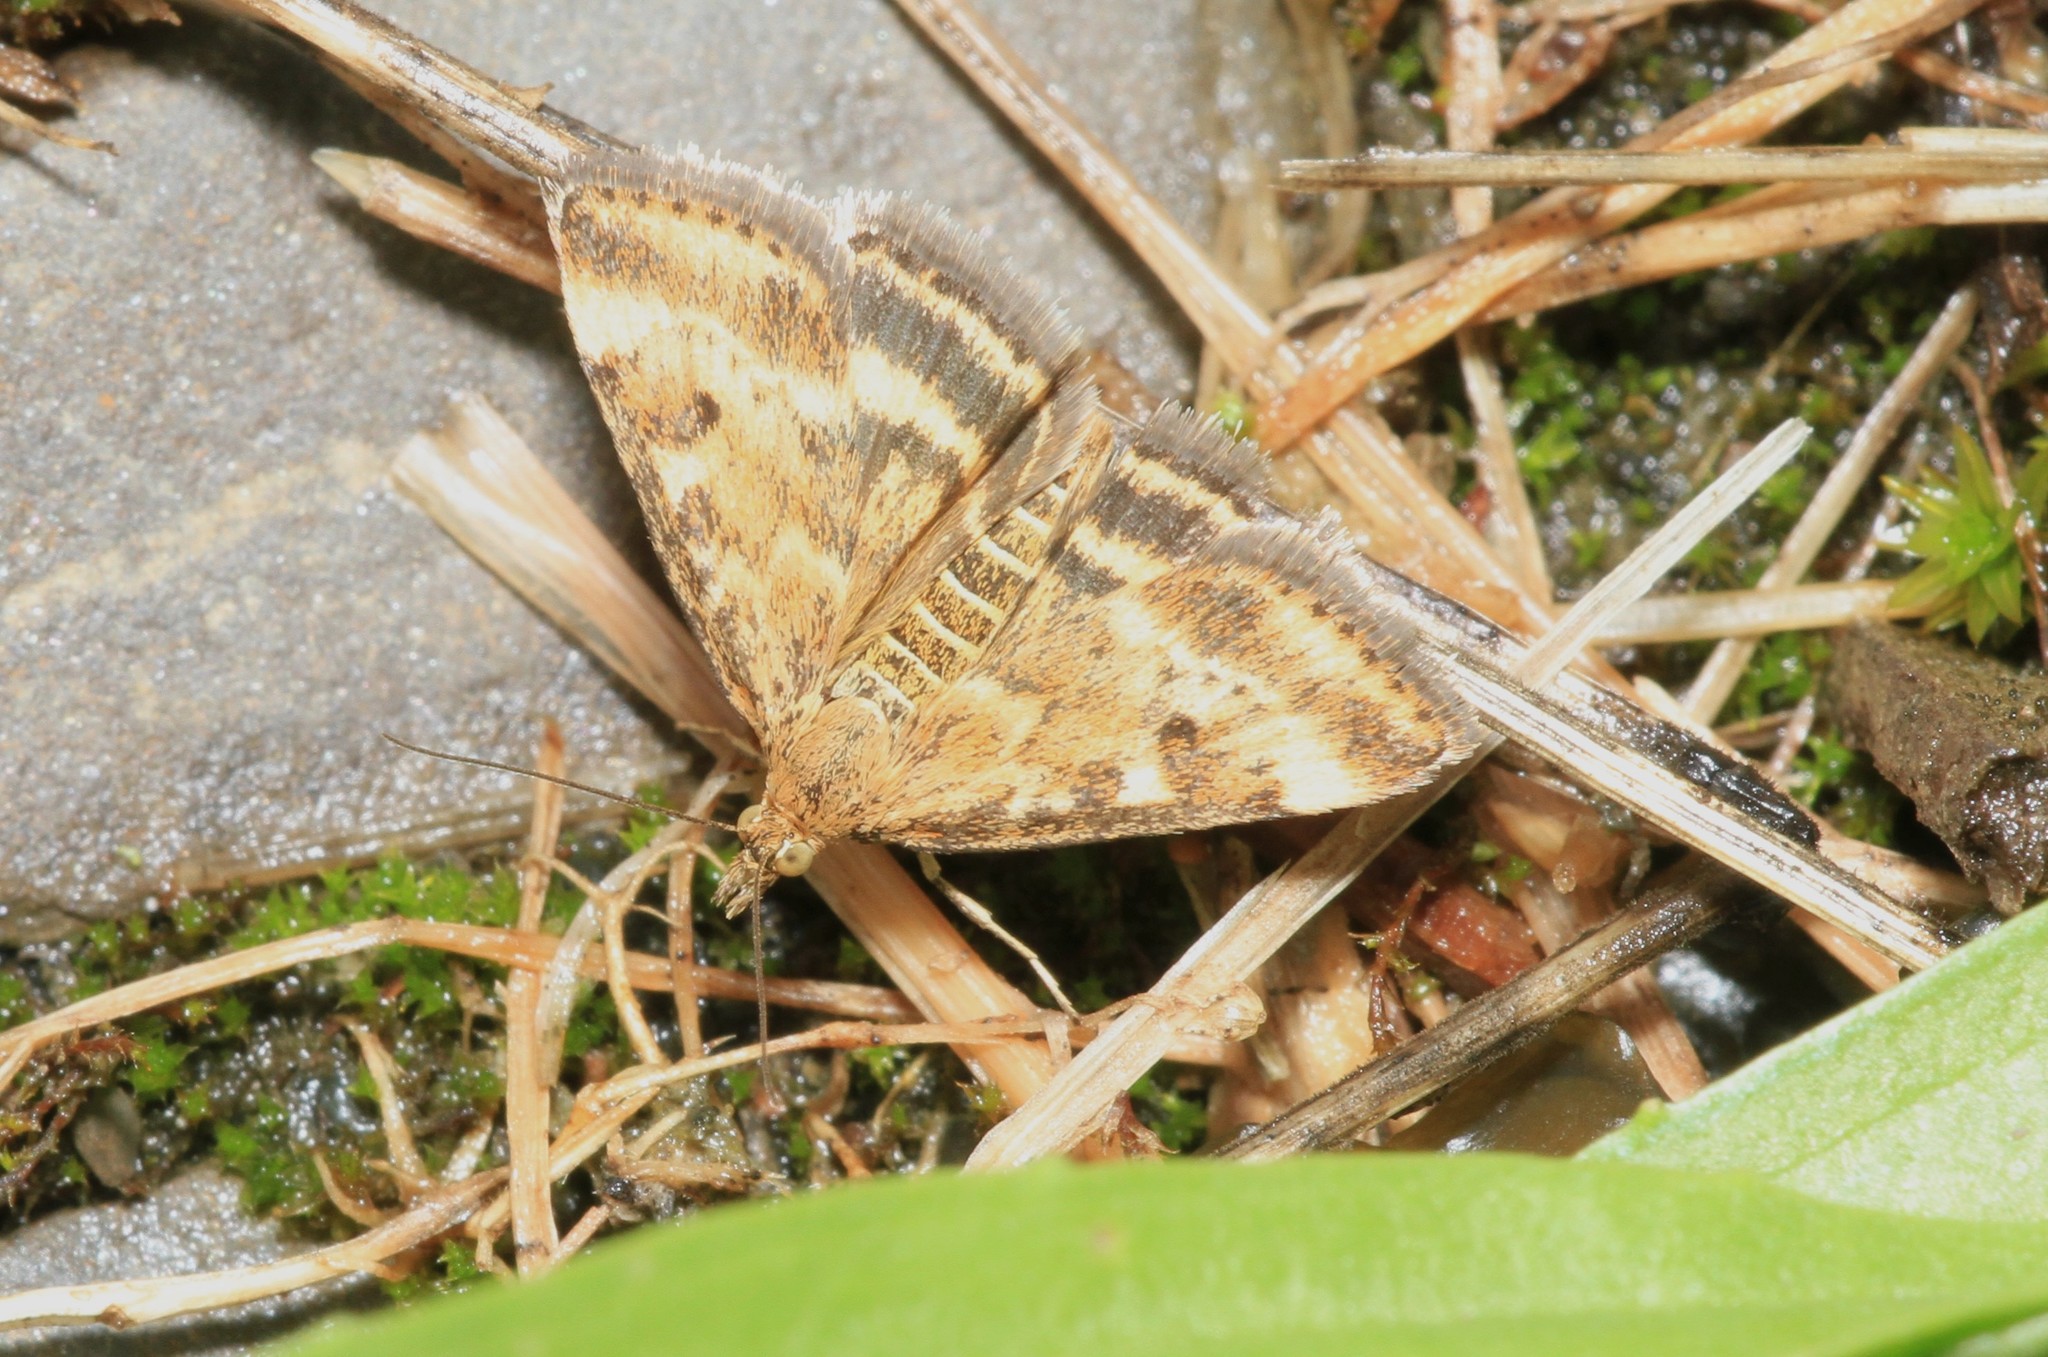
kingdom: Animalia
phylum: Arthropoda
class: Insecta
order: Lepidoptera
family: Crambidae
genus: Pyrausta
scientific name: Pyrausta despicata
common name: Straw-barred pearl
